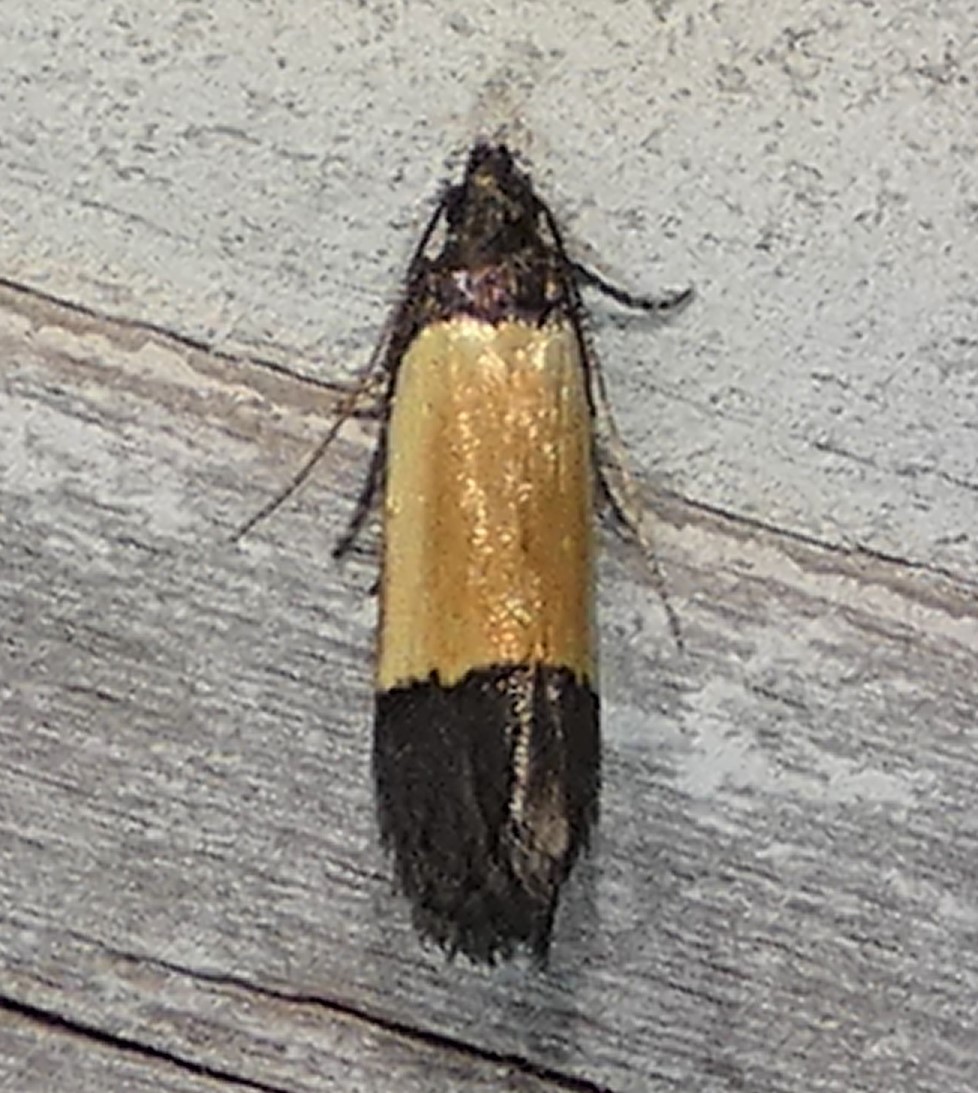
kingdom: Animalia
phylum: Arthropoda
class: Insecta
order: Lepidoptera
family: Gelechiidae
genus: Anacampsis
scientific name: Anacampsis coverdalella
